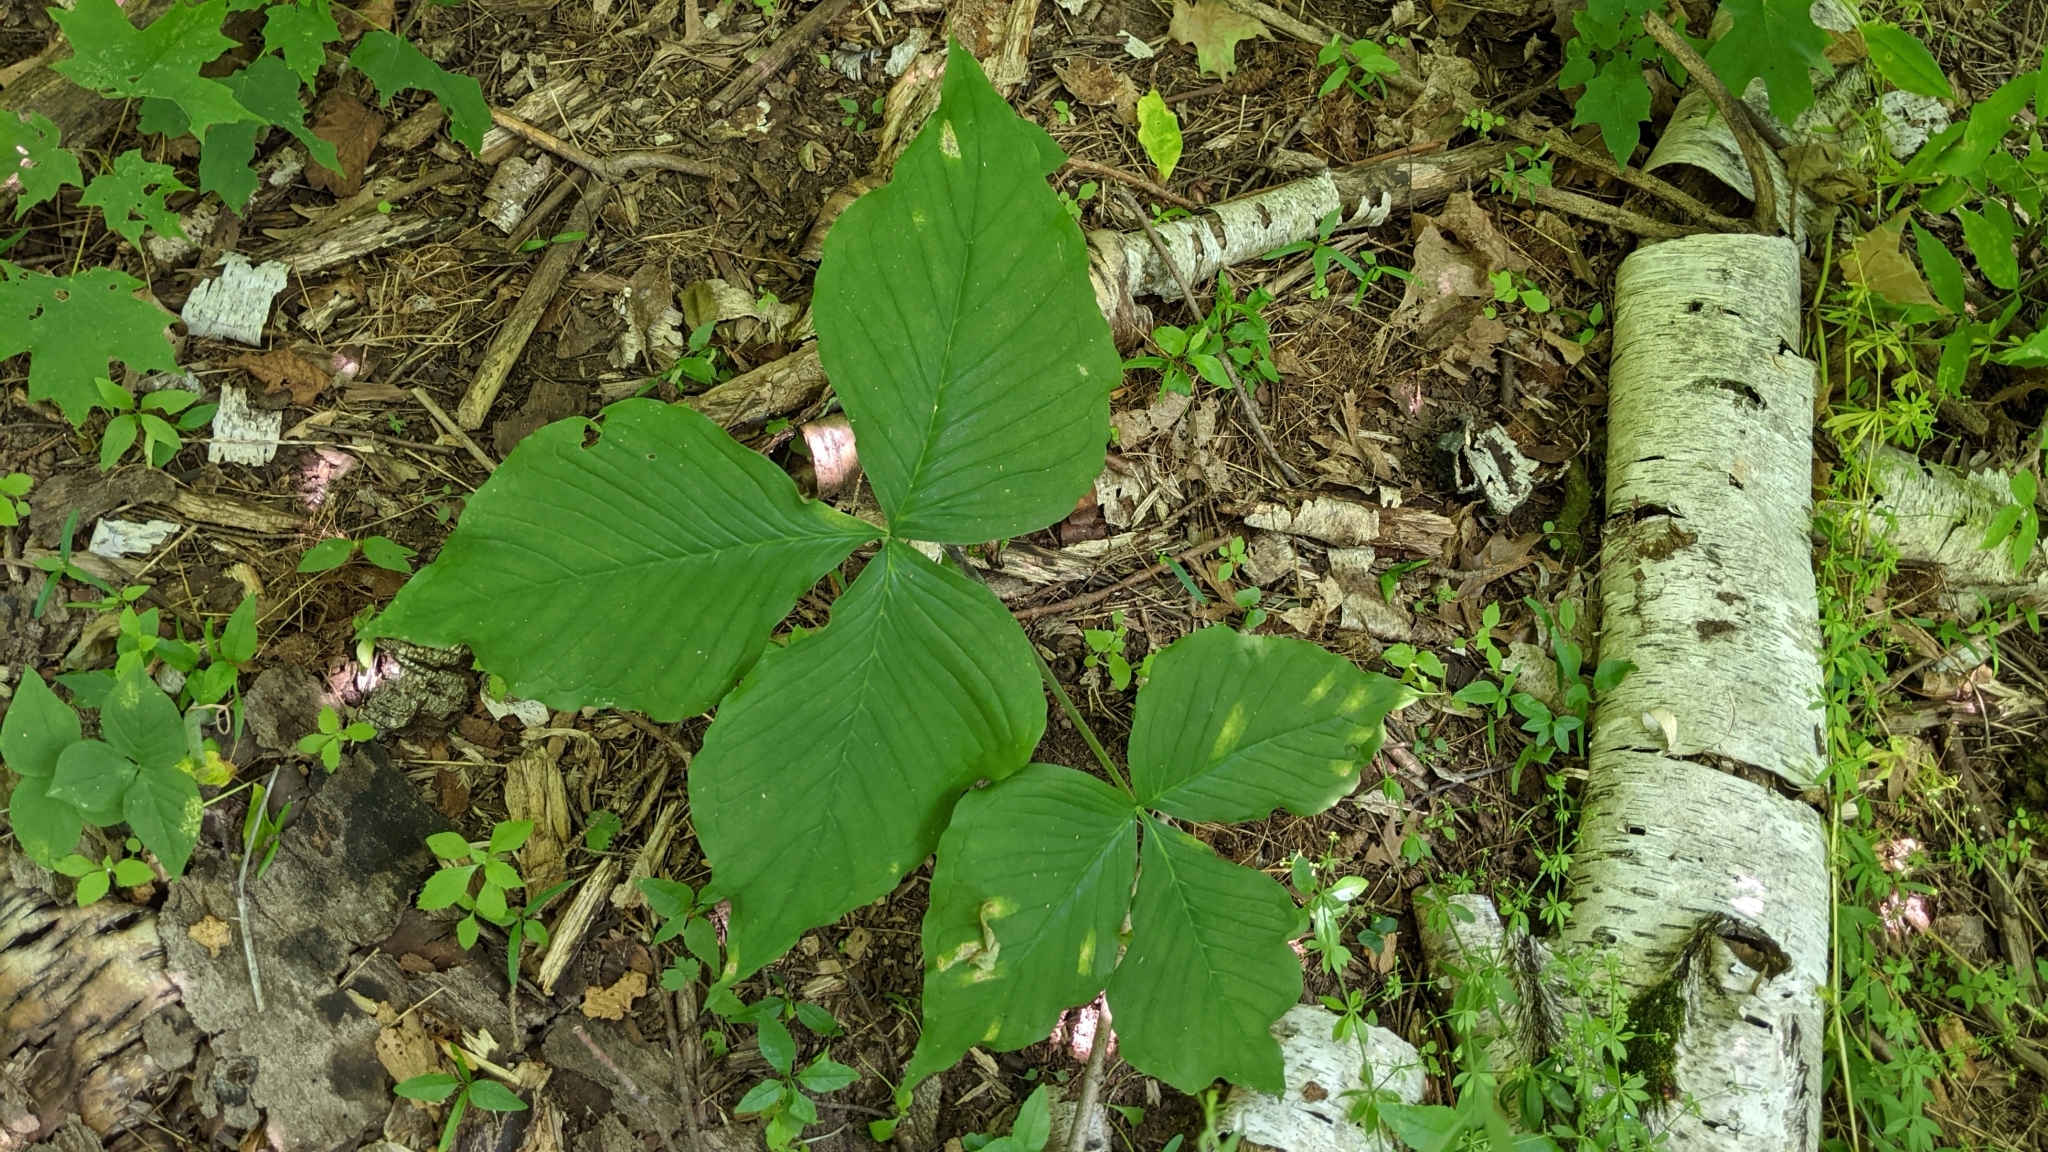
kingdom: Plantae
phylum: Tracheophyta
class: Liliopsida
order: Alismatales
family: Araceae
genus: Arisaema
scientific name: Arisaema triphyllum
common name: Jack-in-the-pulpit
